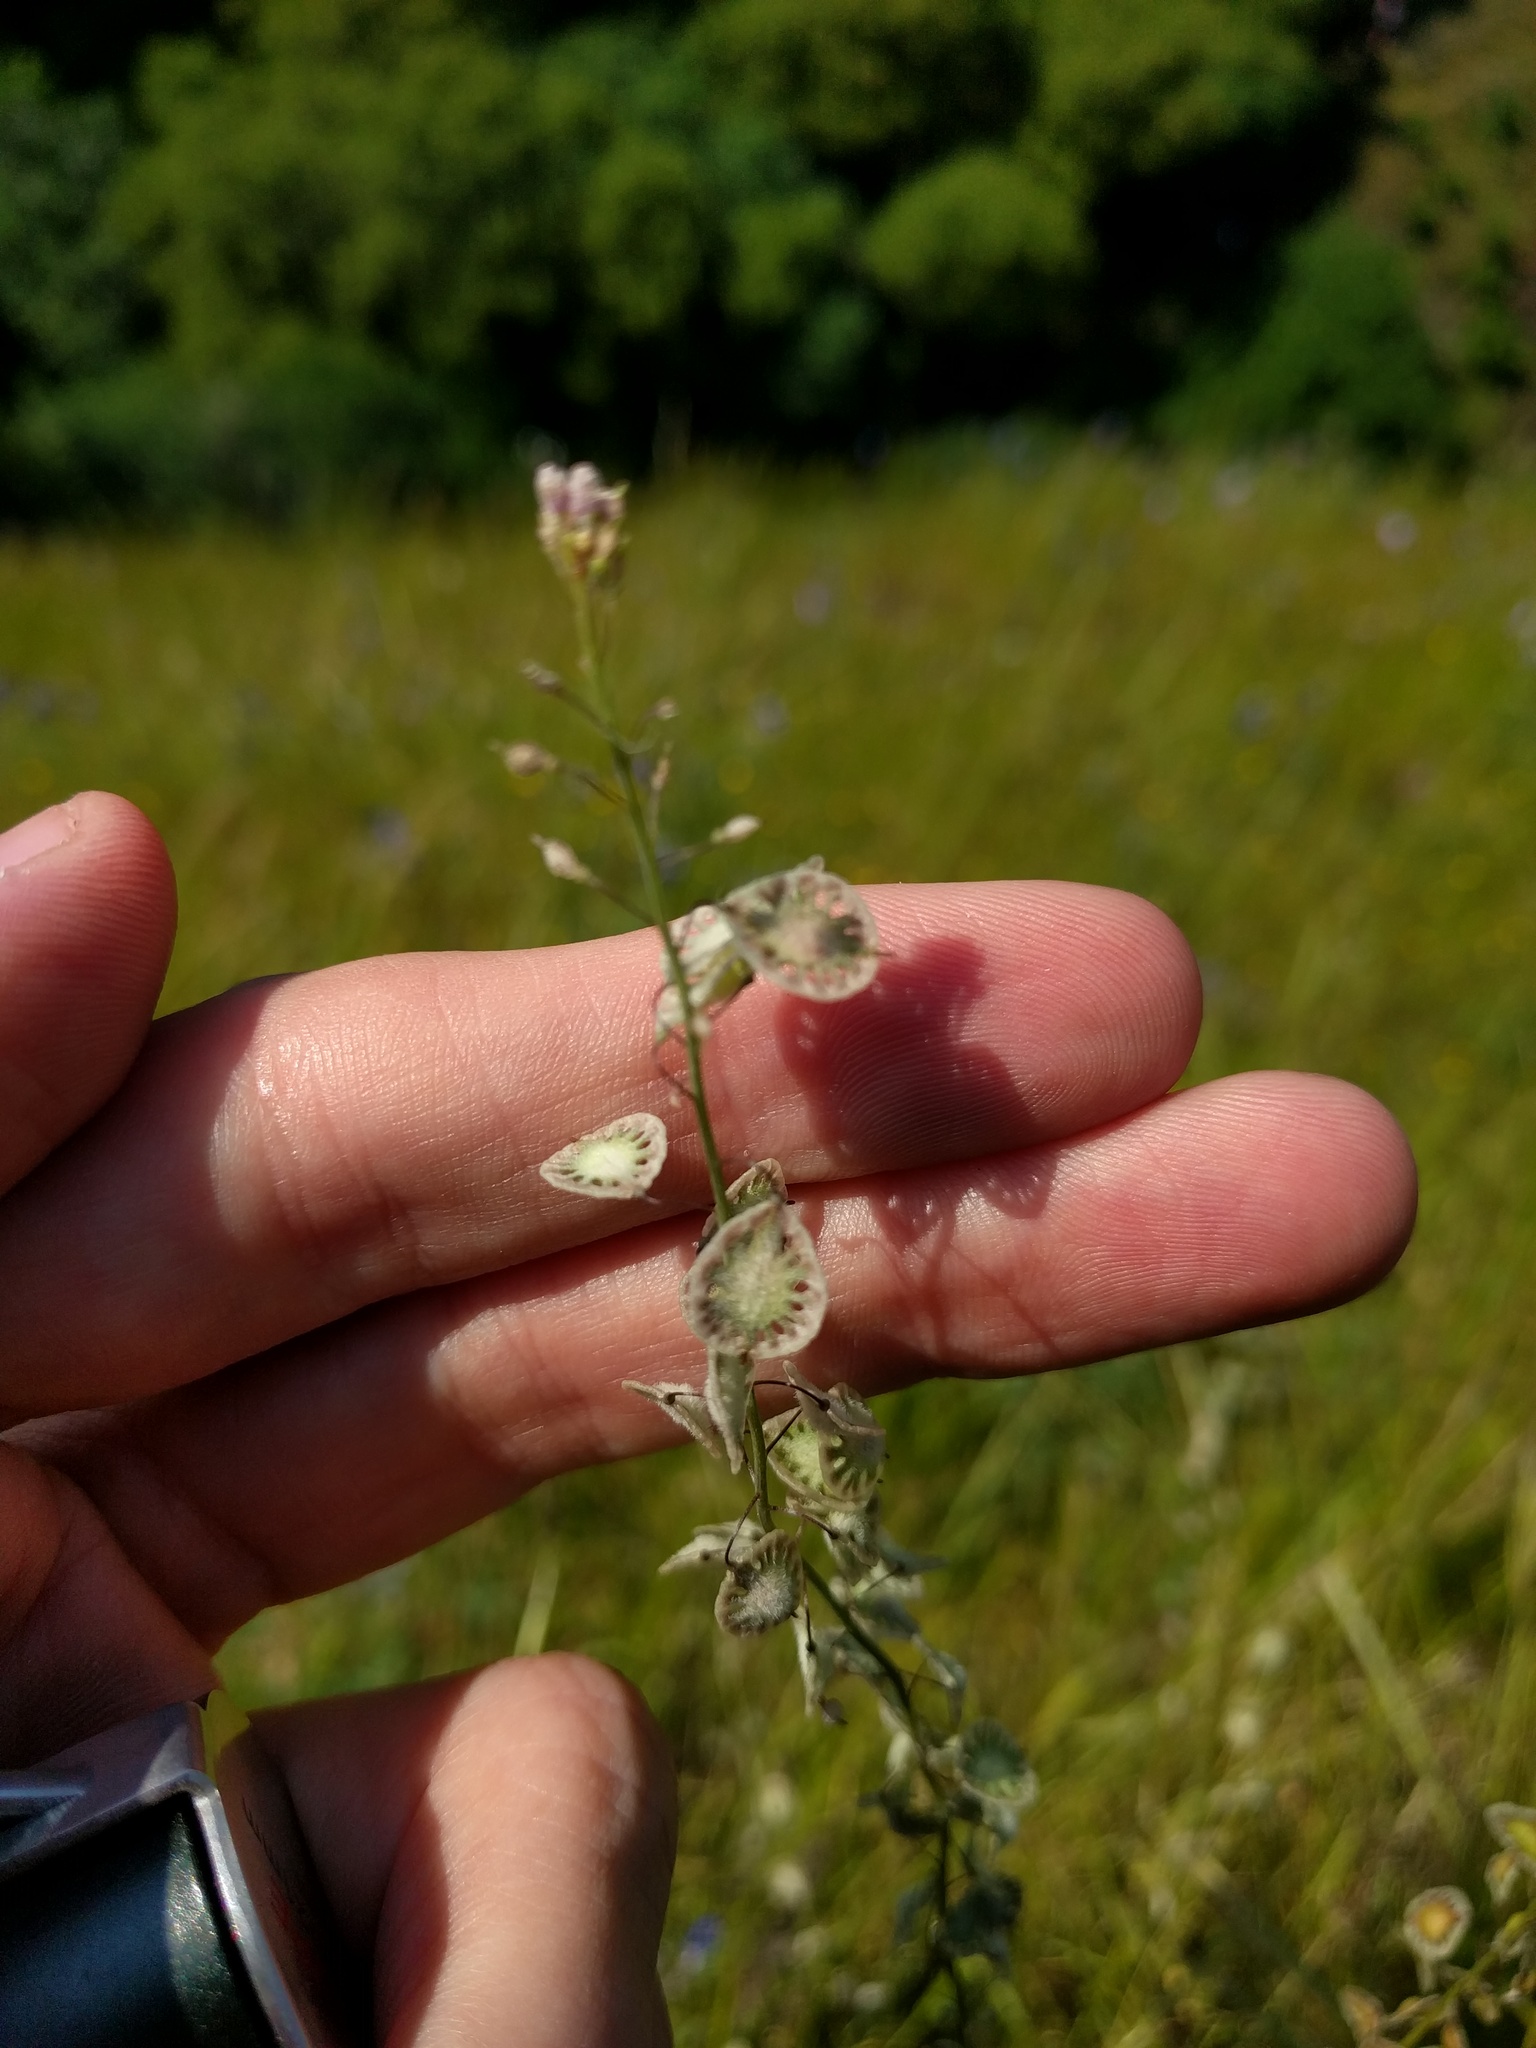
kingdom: Plantae
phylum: Tracheophyta
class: Magnoliopsida
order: Brassicales
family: Brassicaceae
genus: Thysanocarpus
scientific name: Thysanocarpus curvipes
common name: Sand fringepod
